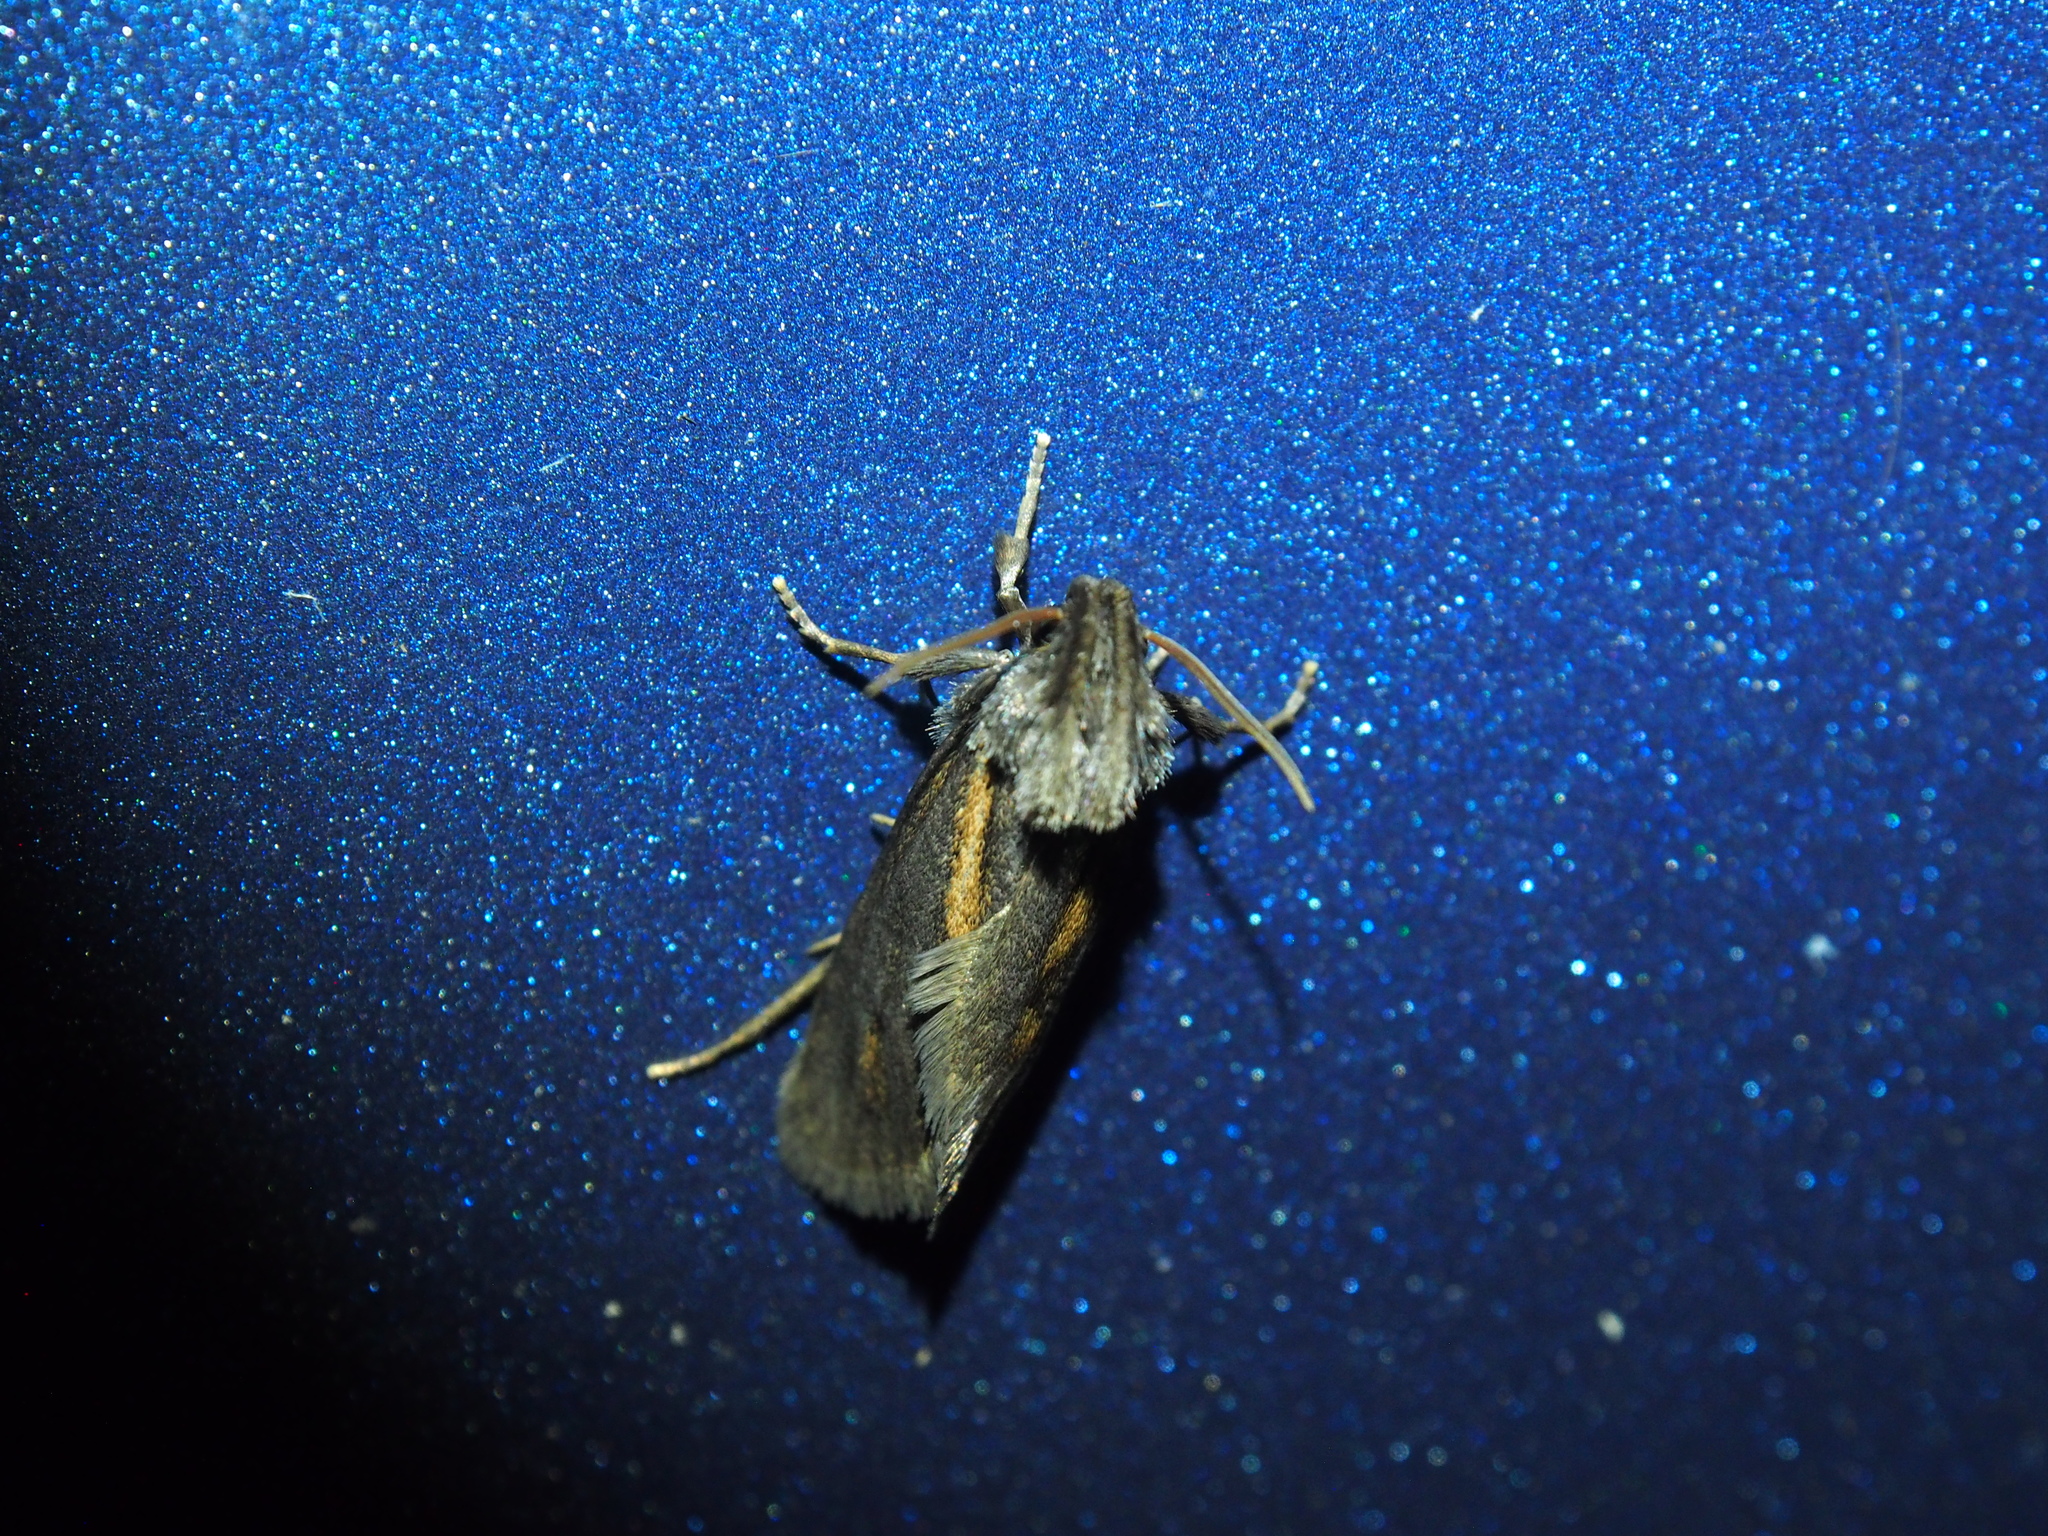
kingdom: Animalia
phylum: Arthropoda
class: Insecta
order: Lepidoptera
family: Tineidae
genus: Acrolophus
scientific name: Acrolophus popeanella
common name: Clemens' grass tubeworm moth
